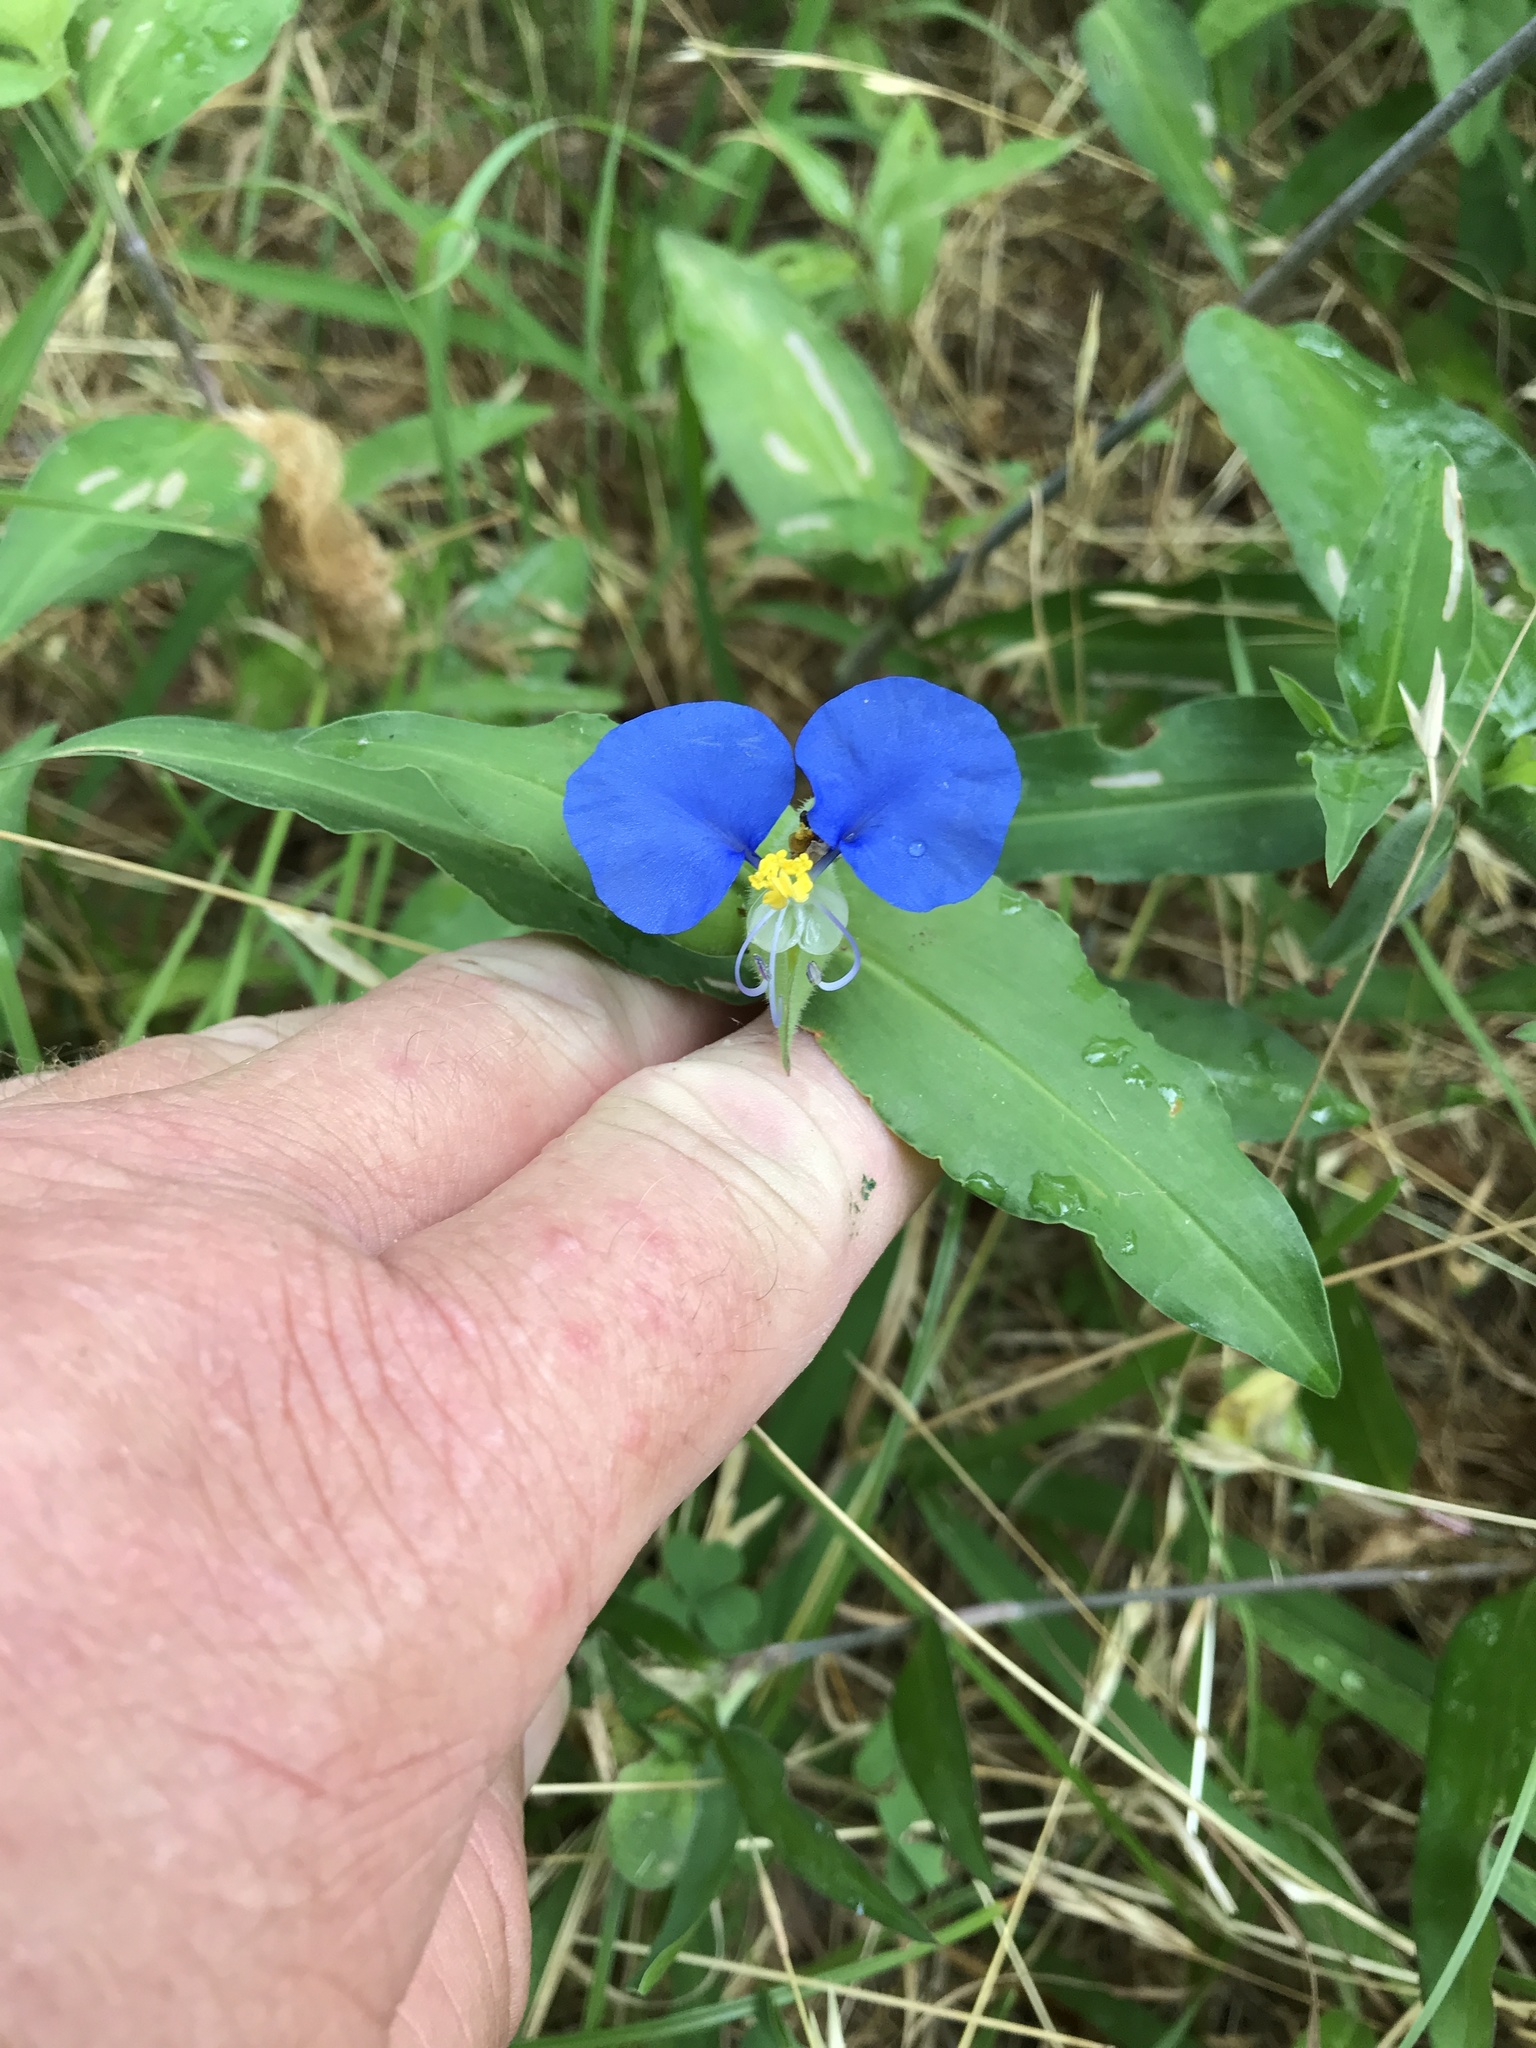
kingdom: Plantae
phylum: Tracheophyta
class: Liliopsida
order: Commelinales
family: Commelinaceae
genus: Commelina
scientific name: Commelina erecta
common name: Blousel blommetjie
